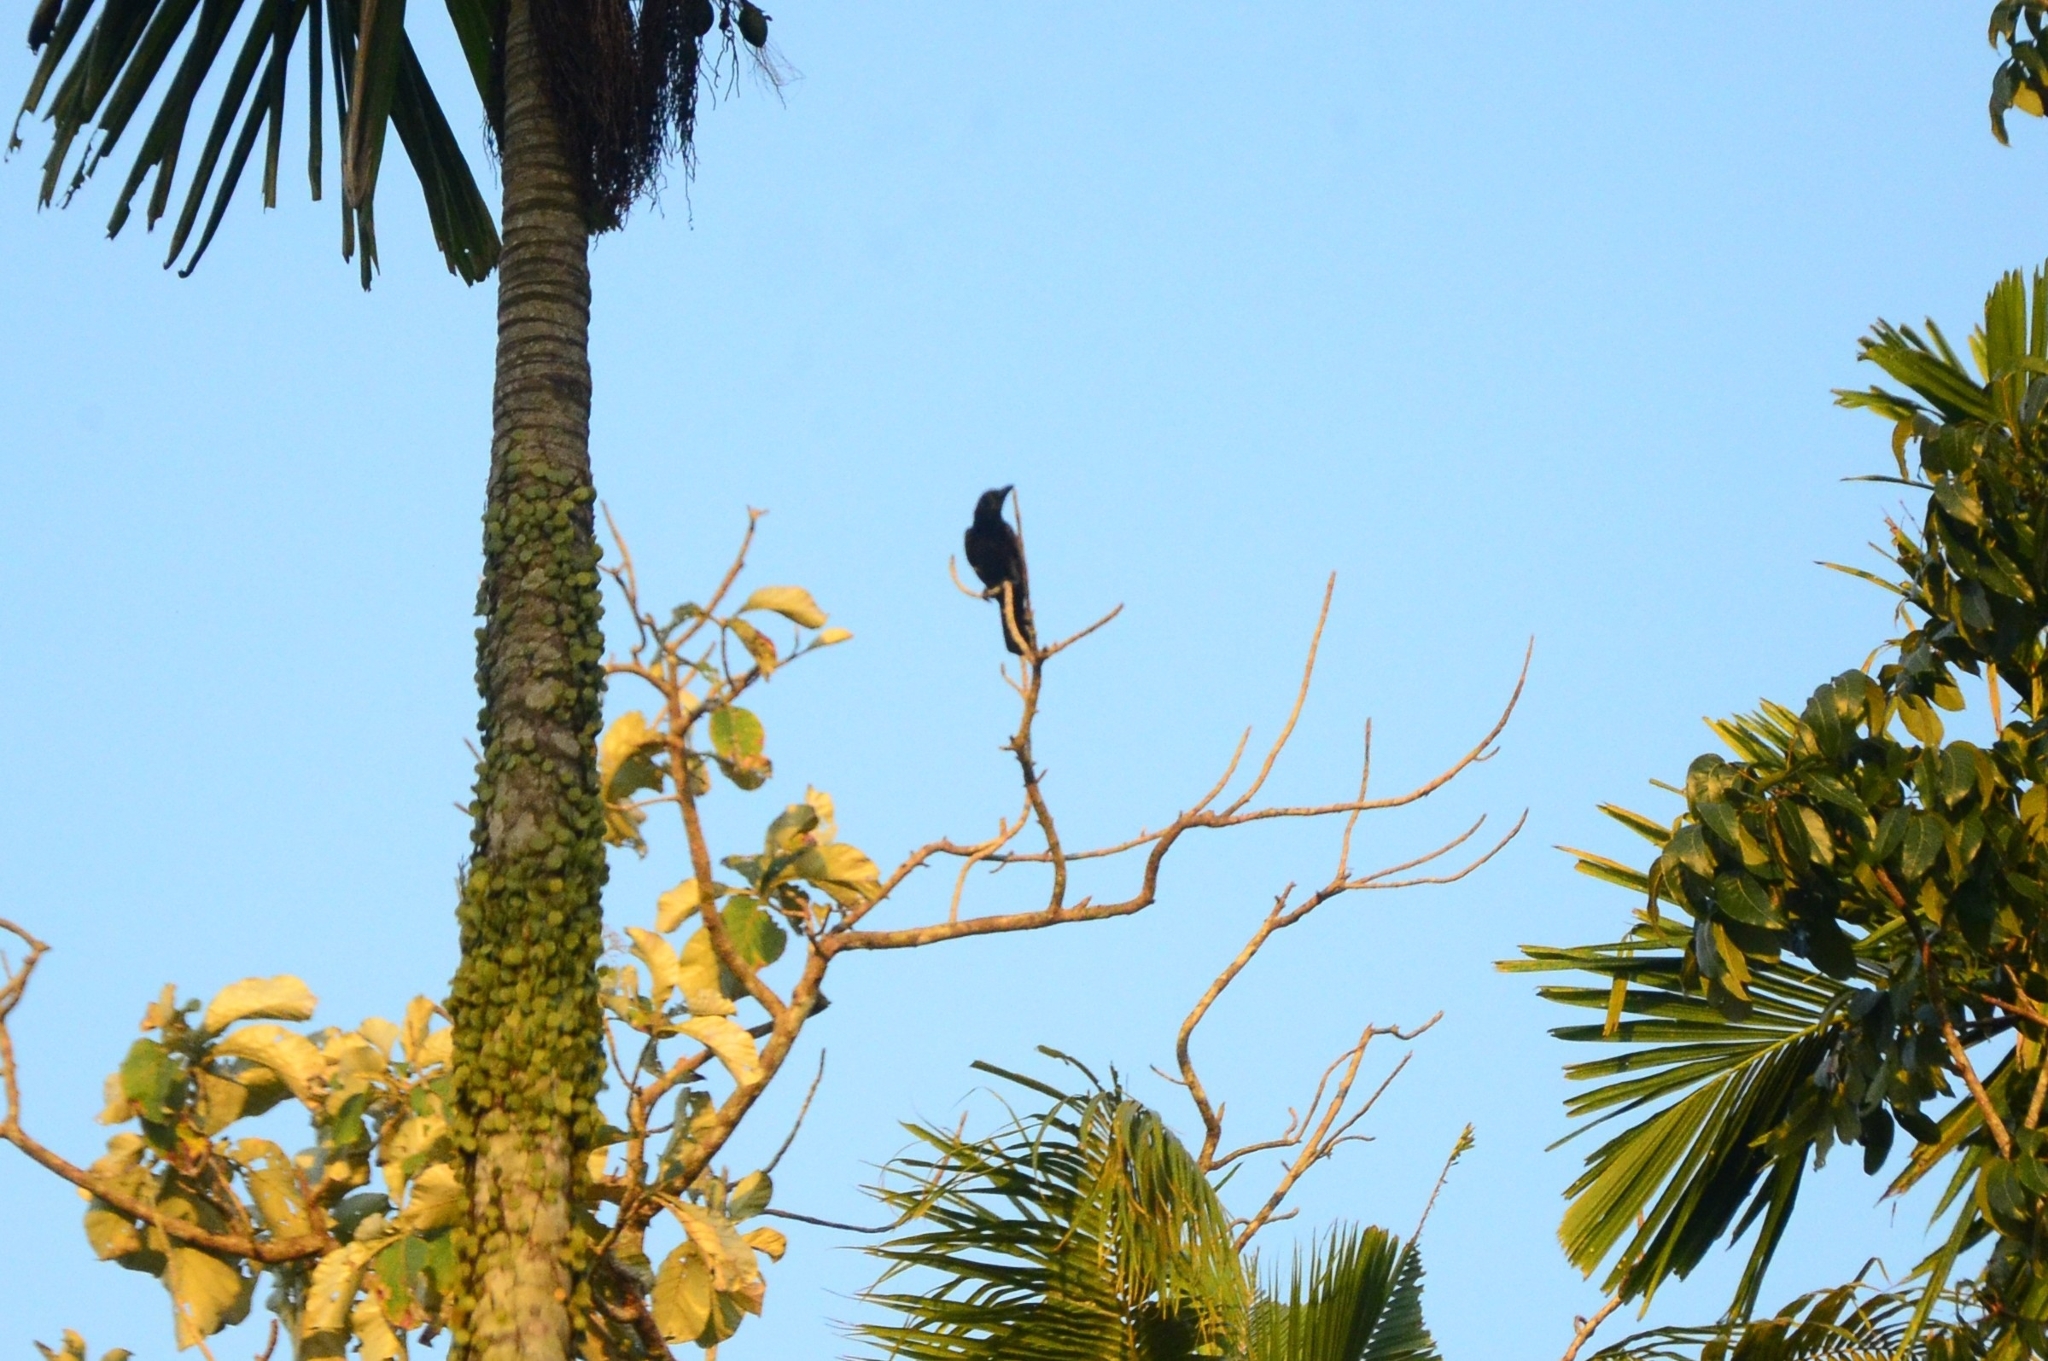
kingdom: Animalia
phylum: Chordata
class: Aves
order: Passeriformes
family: Corvidae
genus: Corvus
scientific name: Corvus macrorhynchos
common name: Large-billed crow
